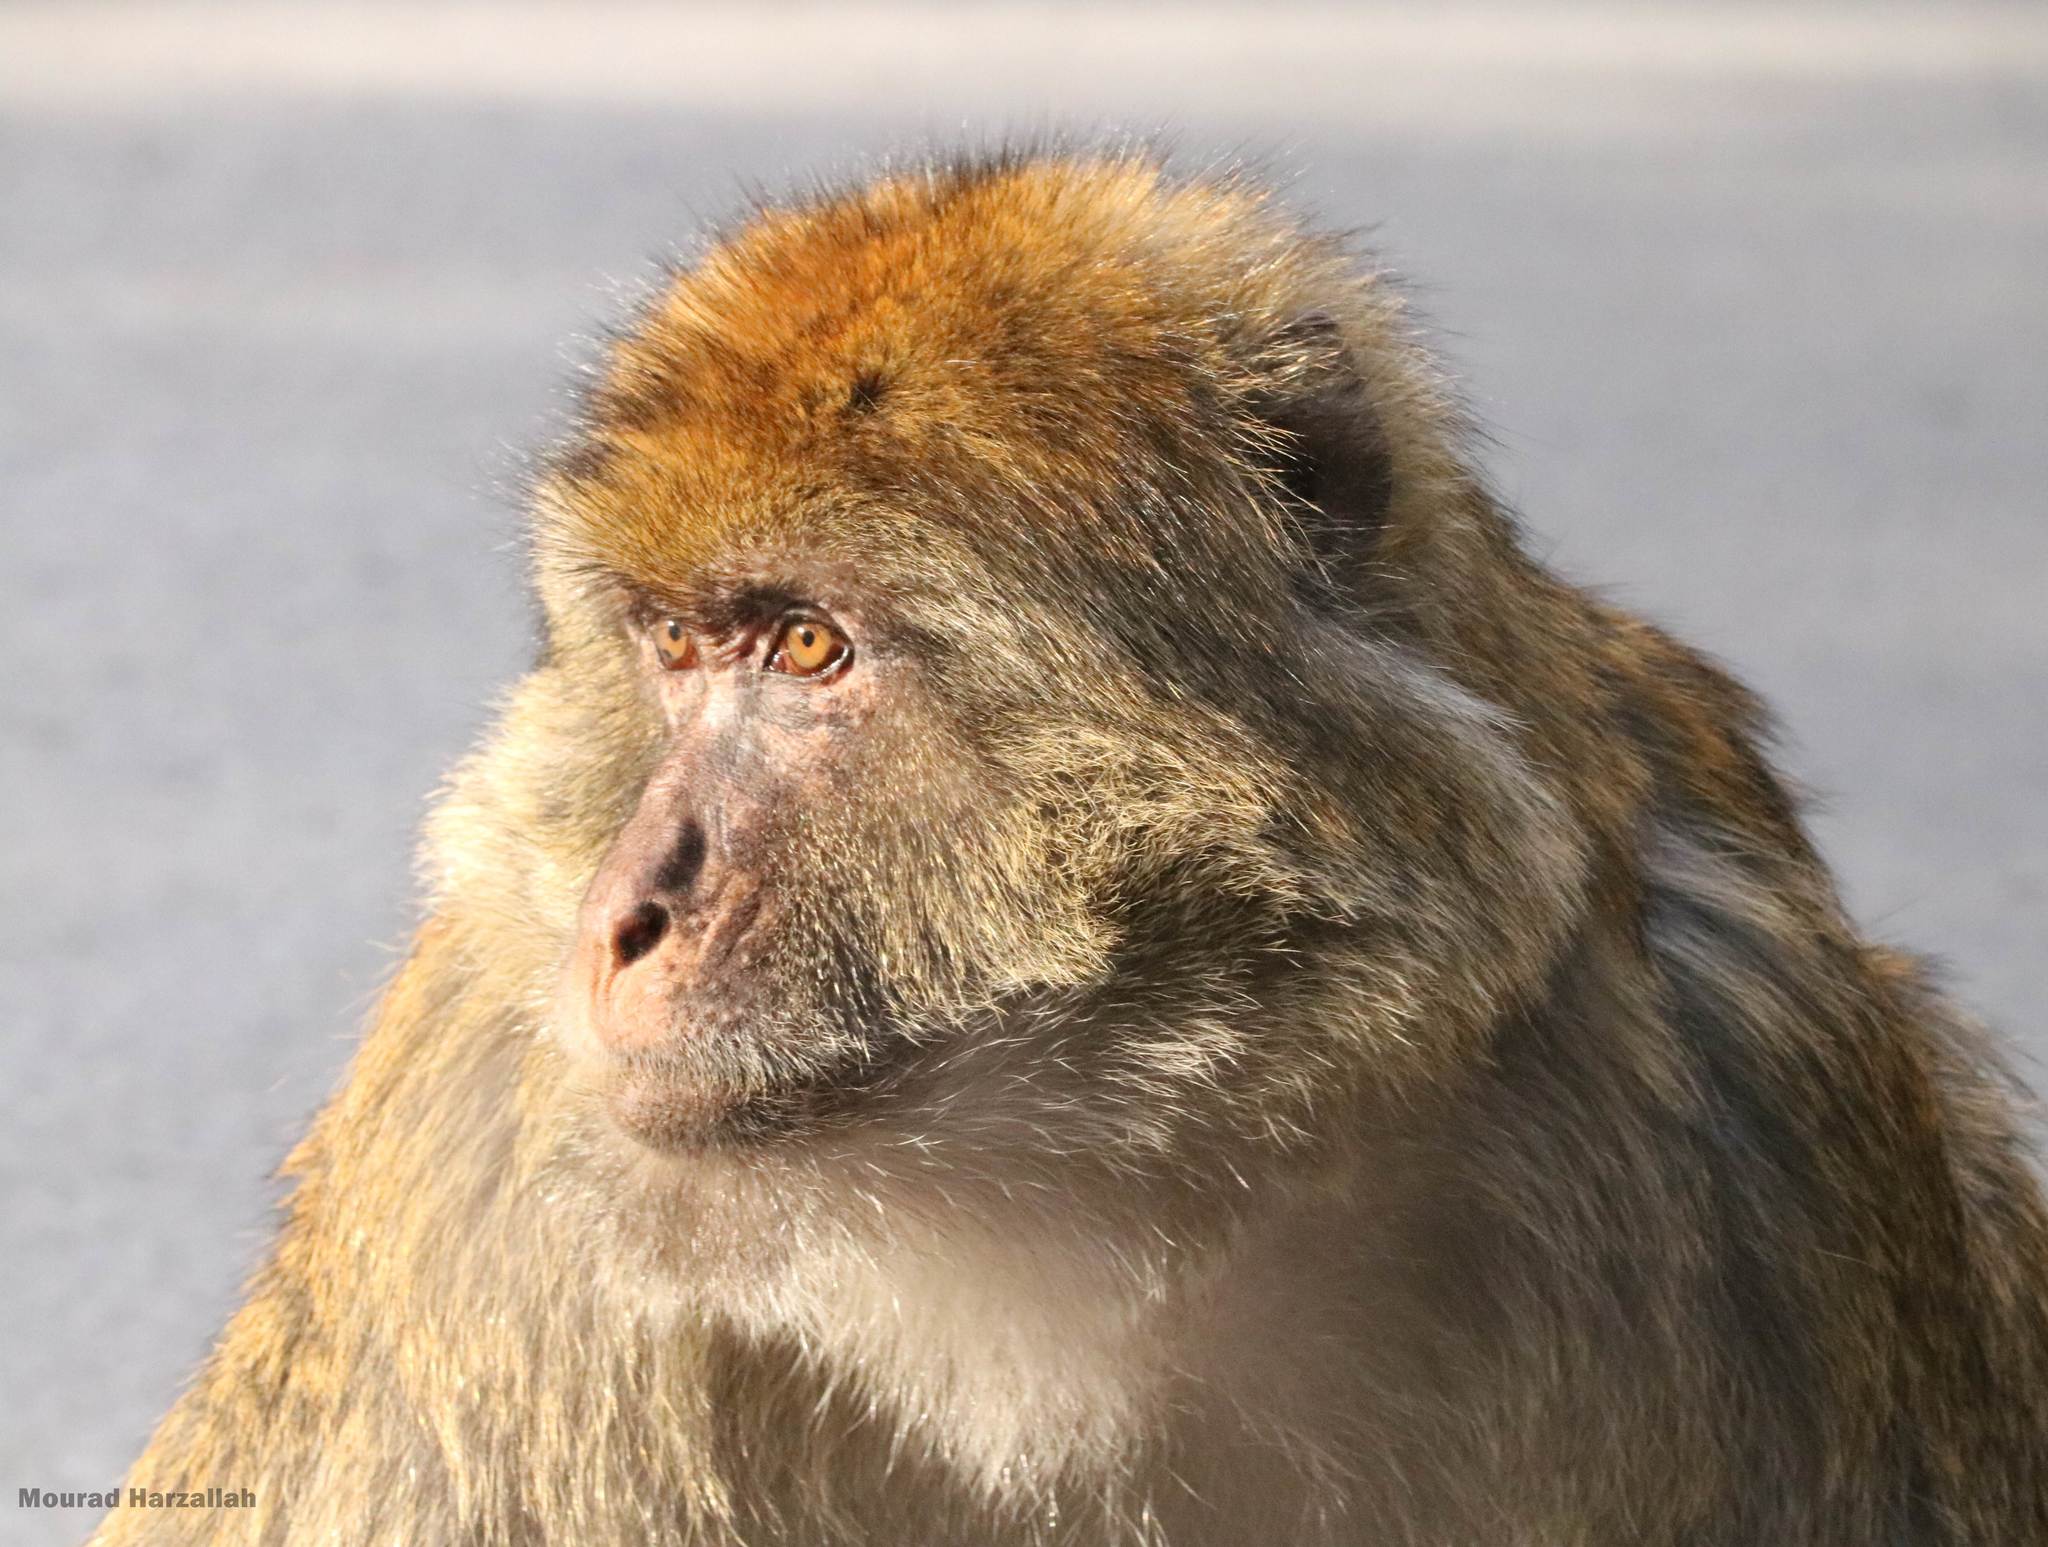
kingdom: Animalia
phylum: Chordata
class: Mammalia
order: Primates
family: Cercopithecidae
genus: Macaca
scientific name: Macaca sylvanus
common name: Barbary macaque
